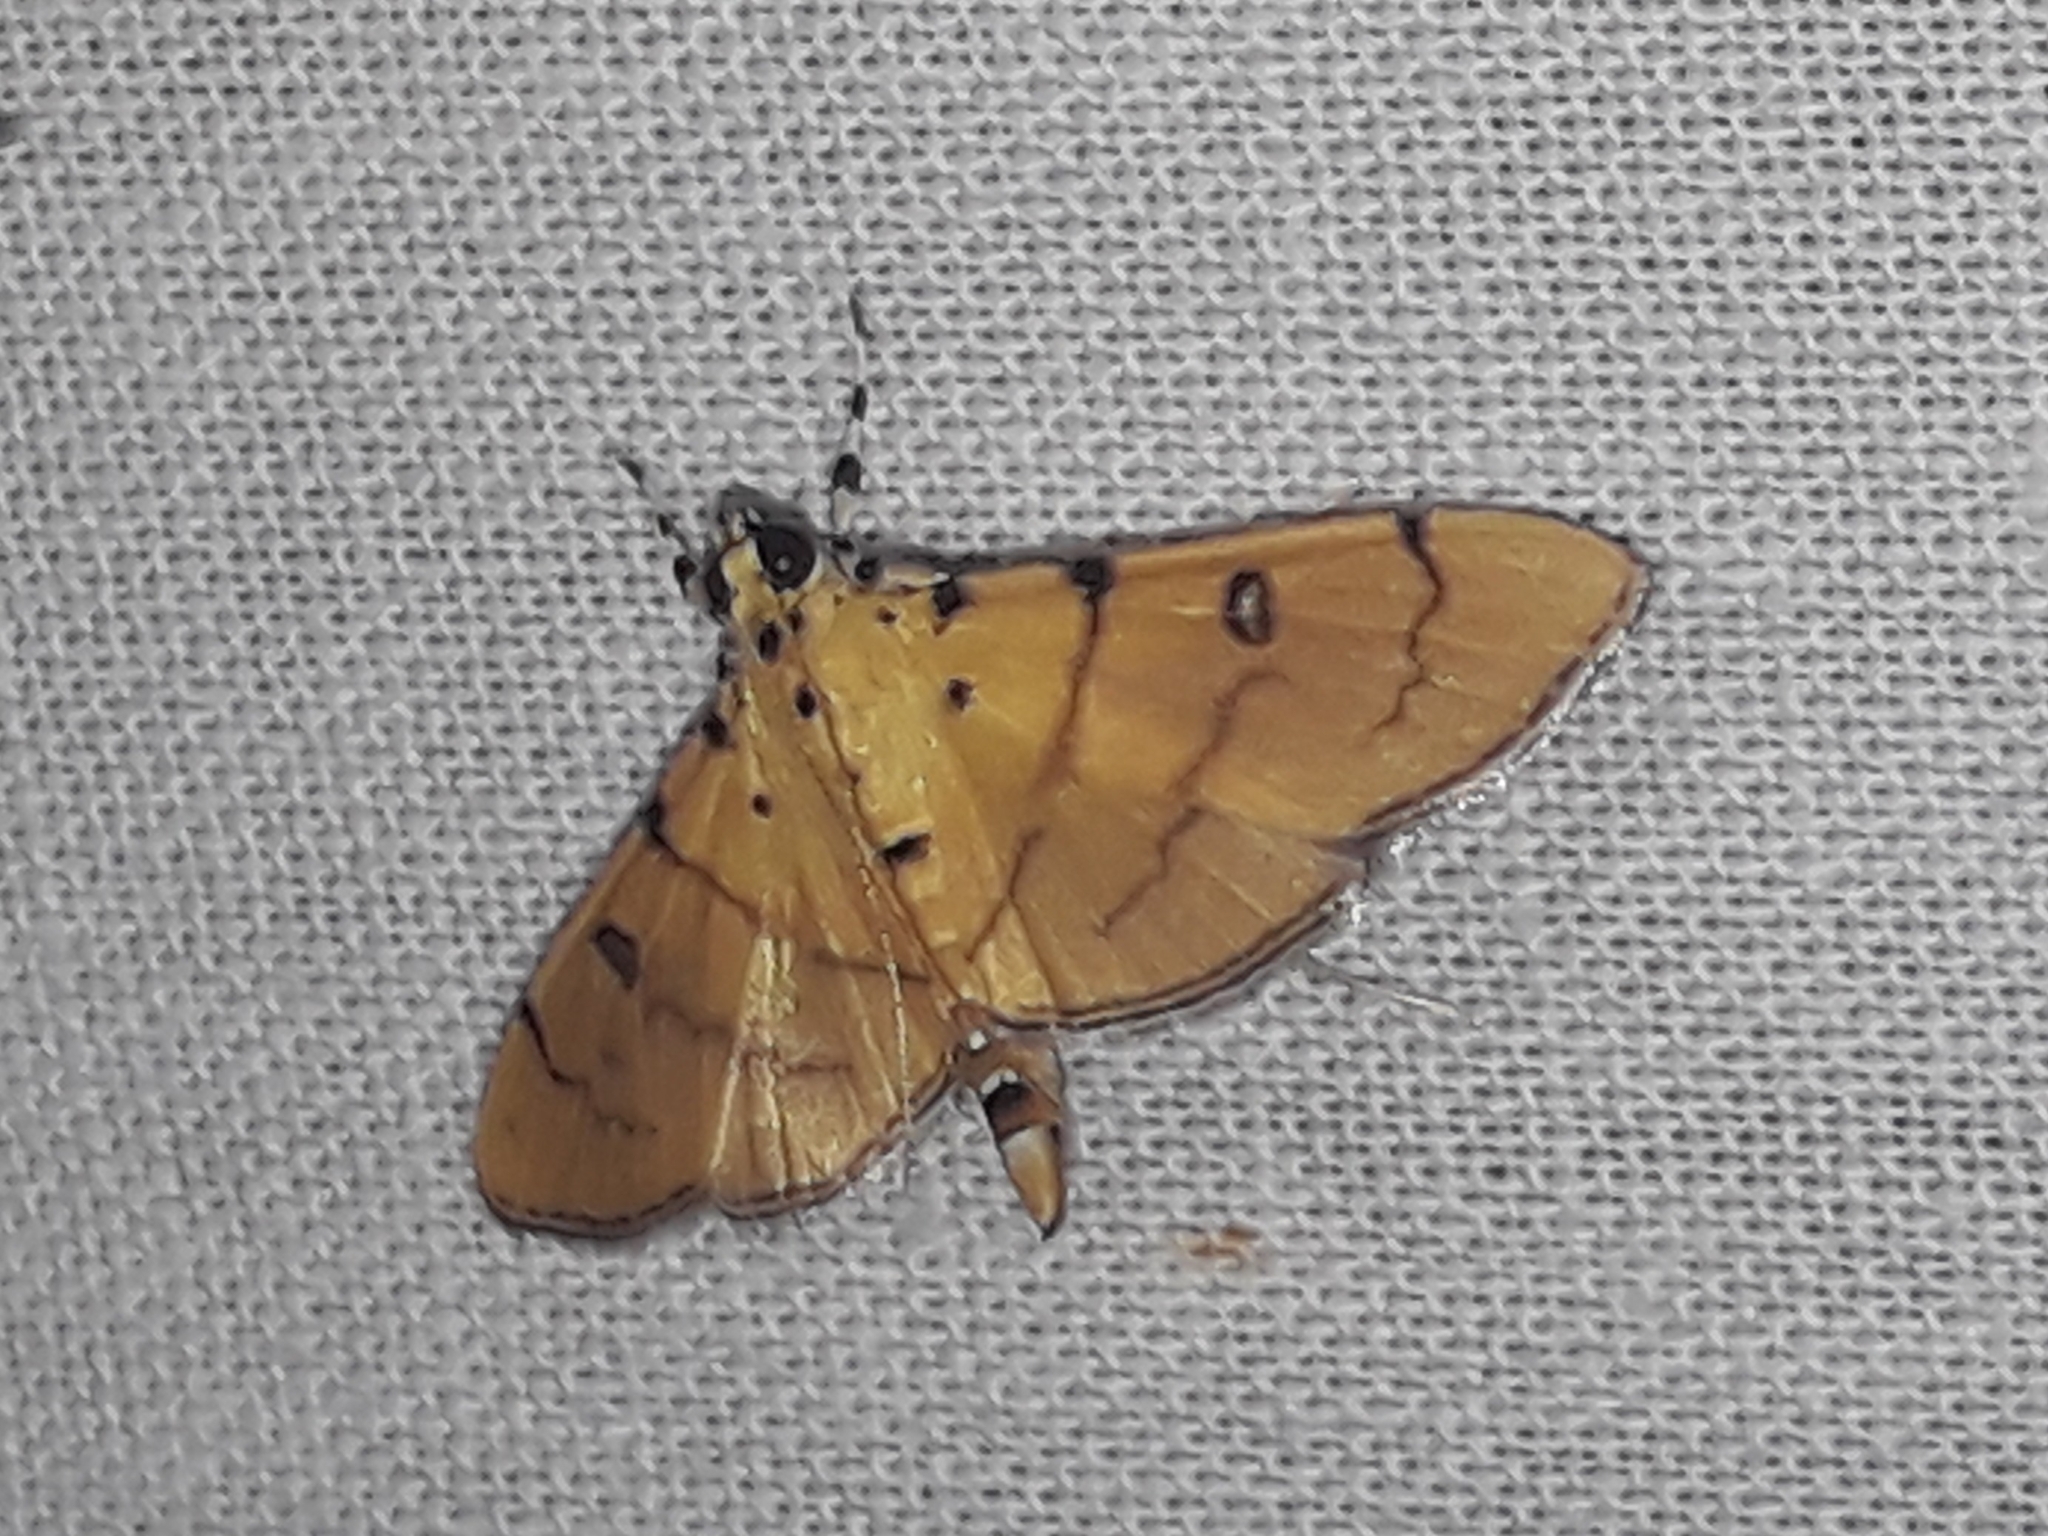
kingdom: Animalia
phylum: Arthropoda
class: Insecta
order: Lepidoptera
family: Crambidae
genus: Lygropia
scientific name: Lygropia cernalis
